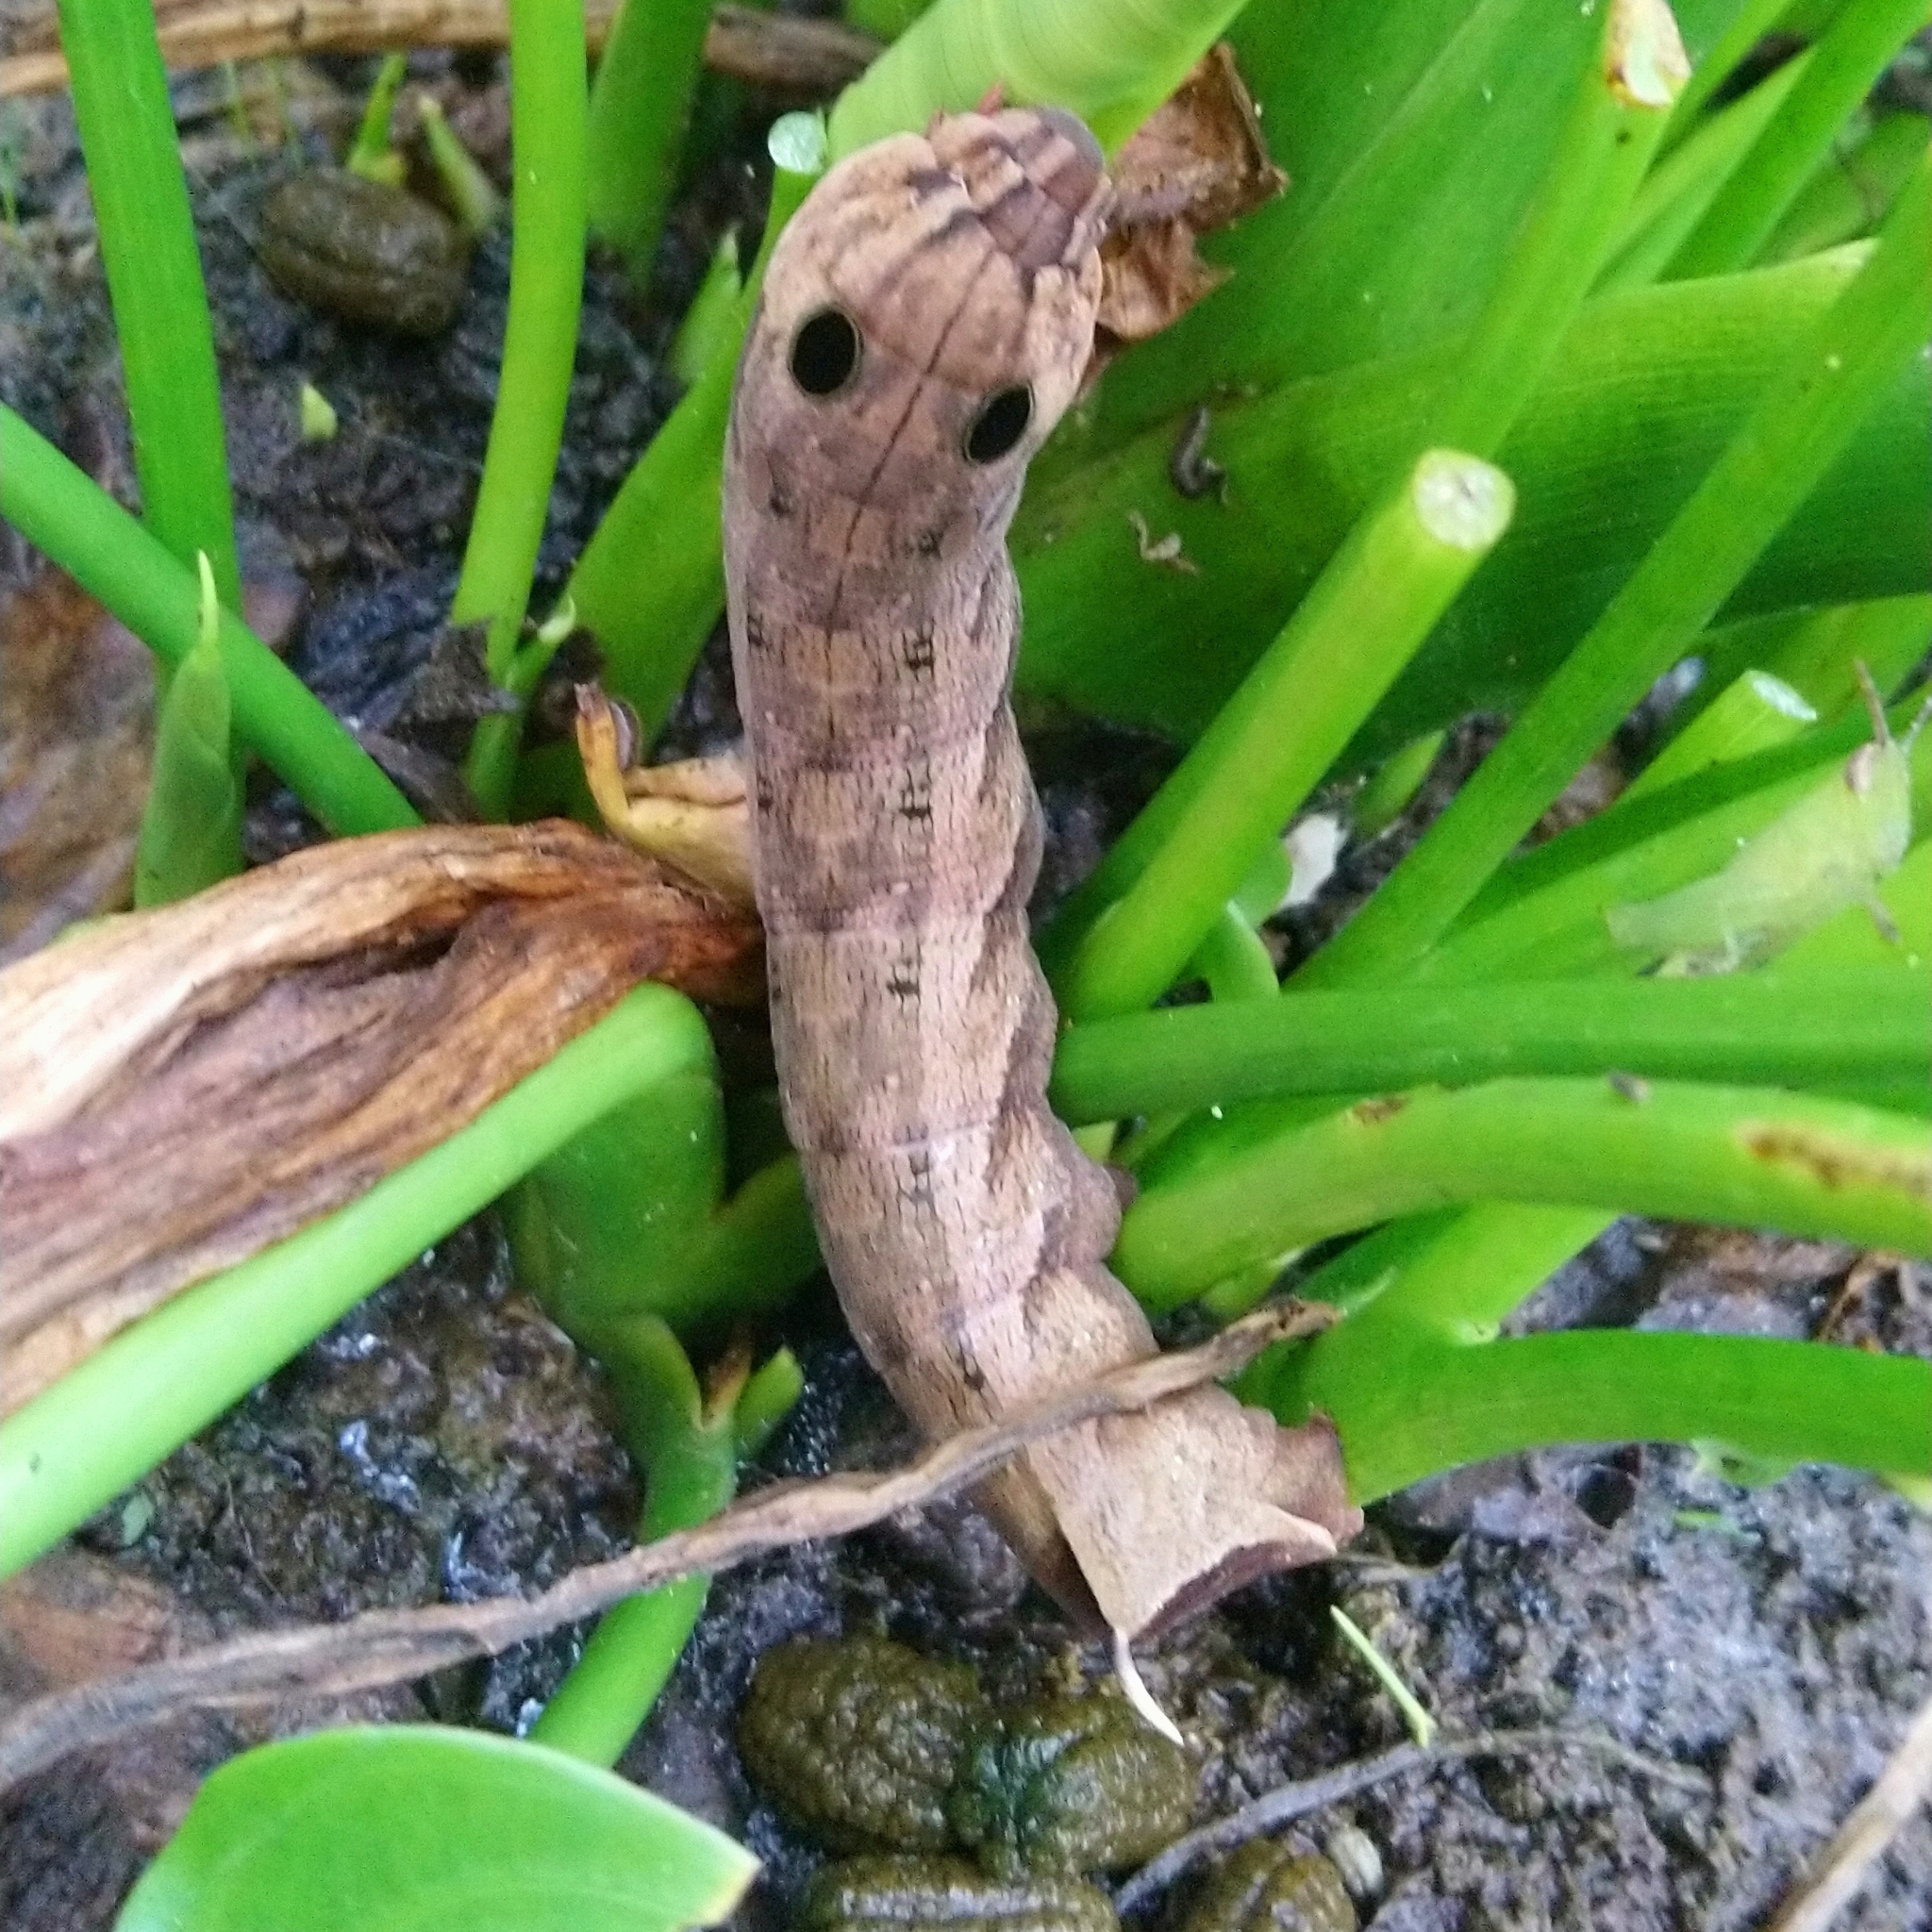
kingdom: Animalia
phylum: Arthropoda
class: Insecta
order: Lepidoptera
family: Sphingidae
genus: Hippotion
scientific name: Hippotion eson
